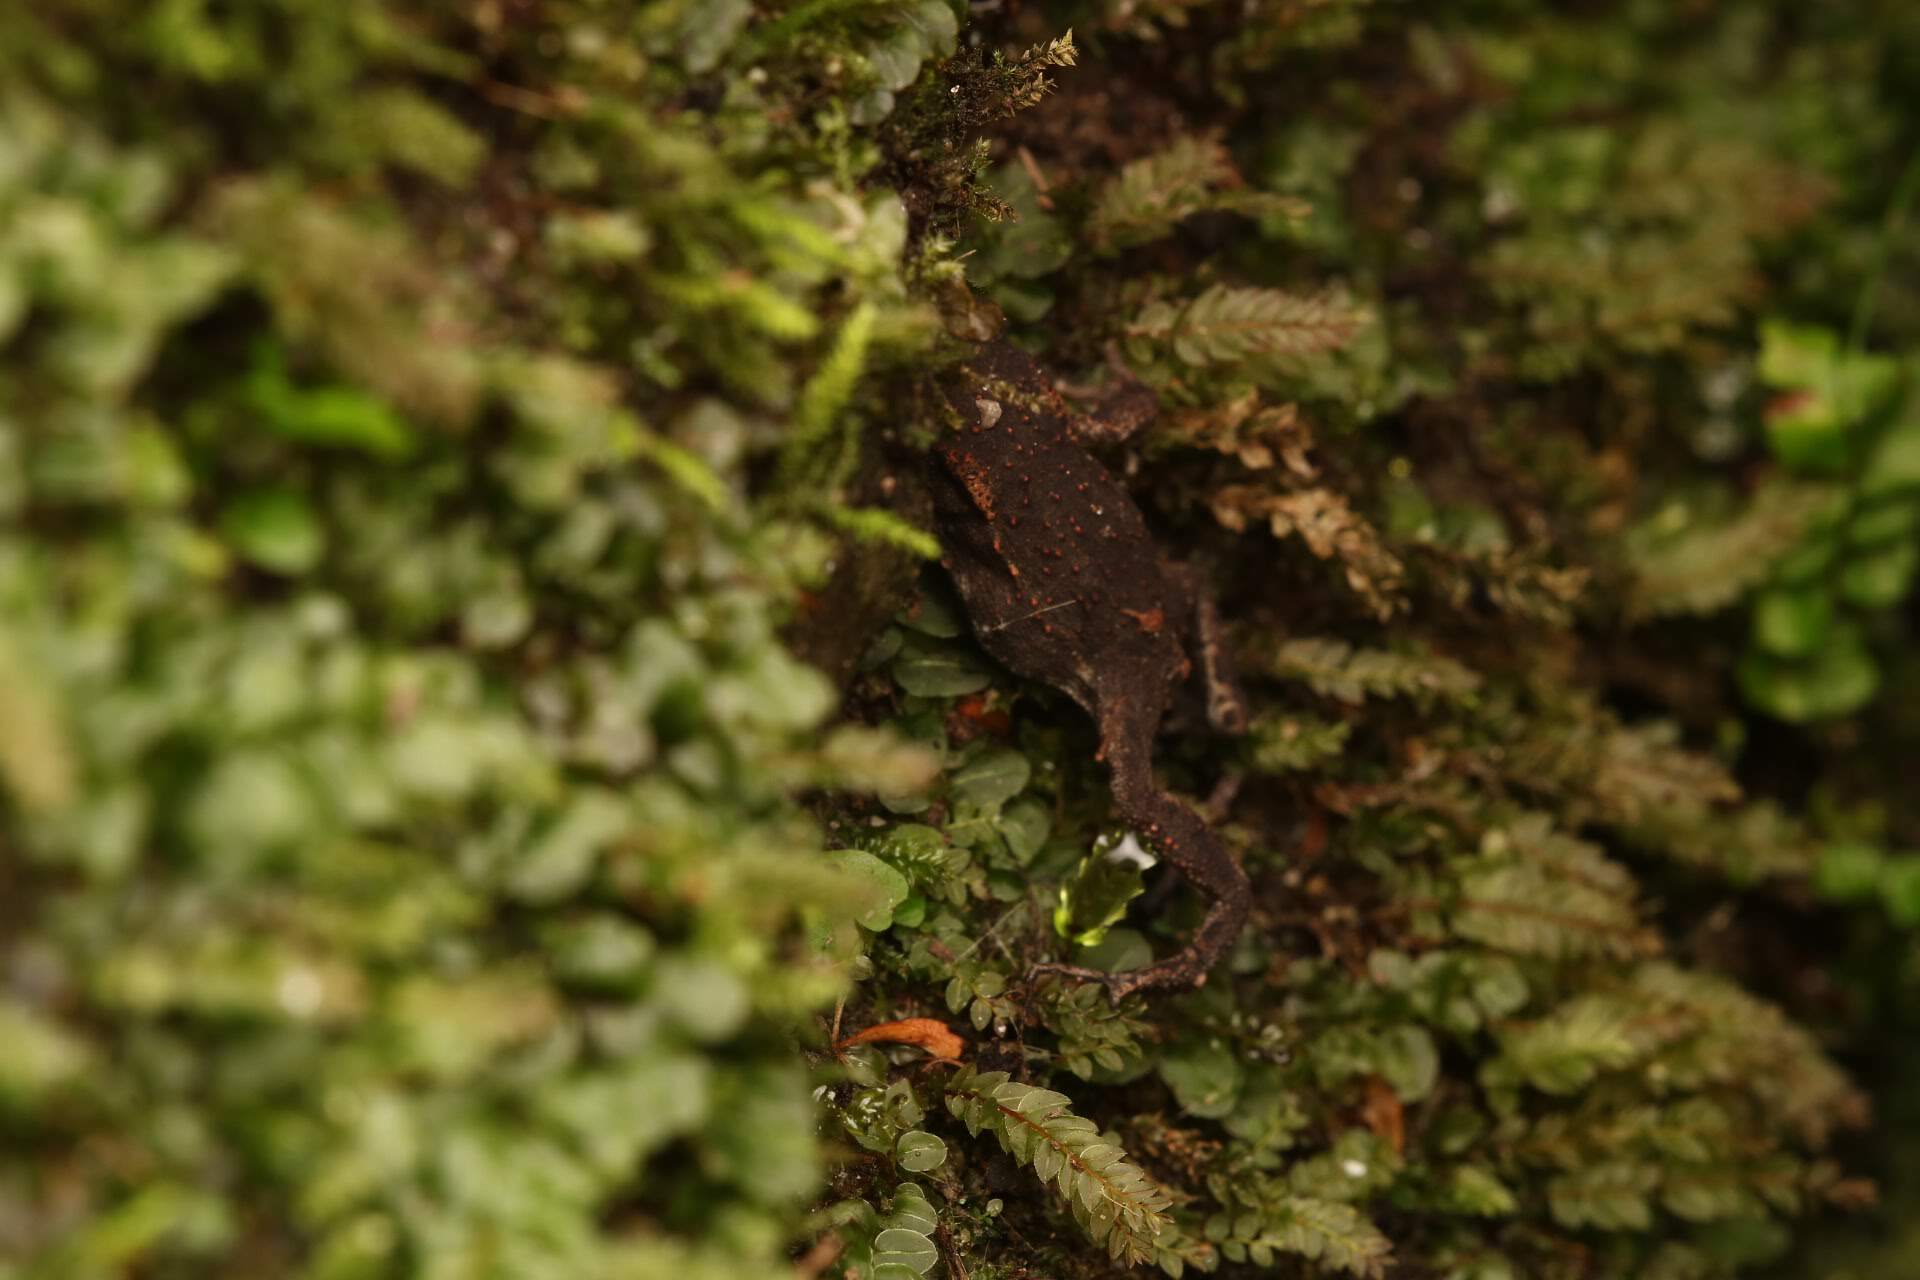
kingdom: Animalia
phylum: Chordata
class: Amphibia
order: Anura
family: Bufonidae
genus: Bufo
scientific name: Bufo bufo
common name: Common toad
